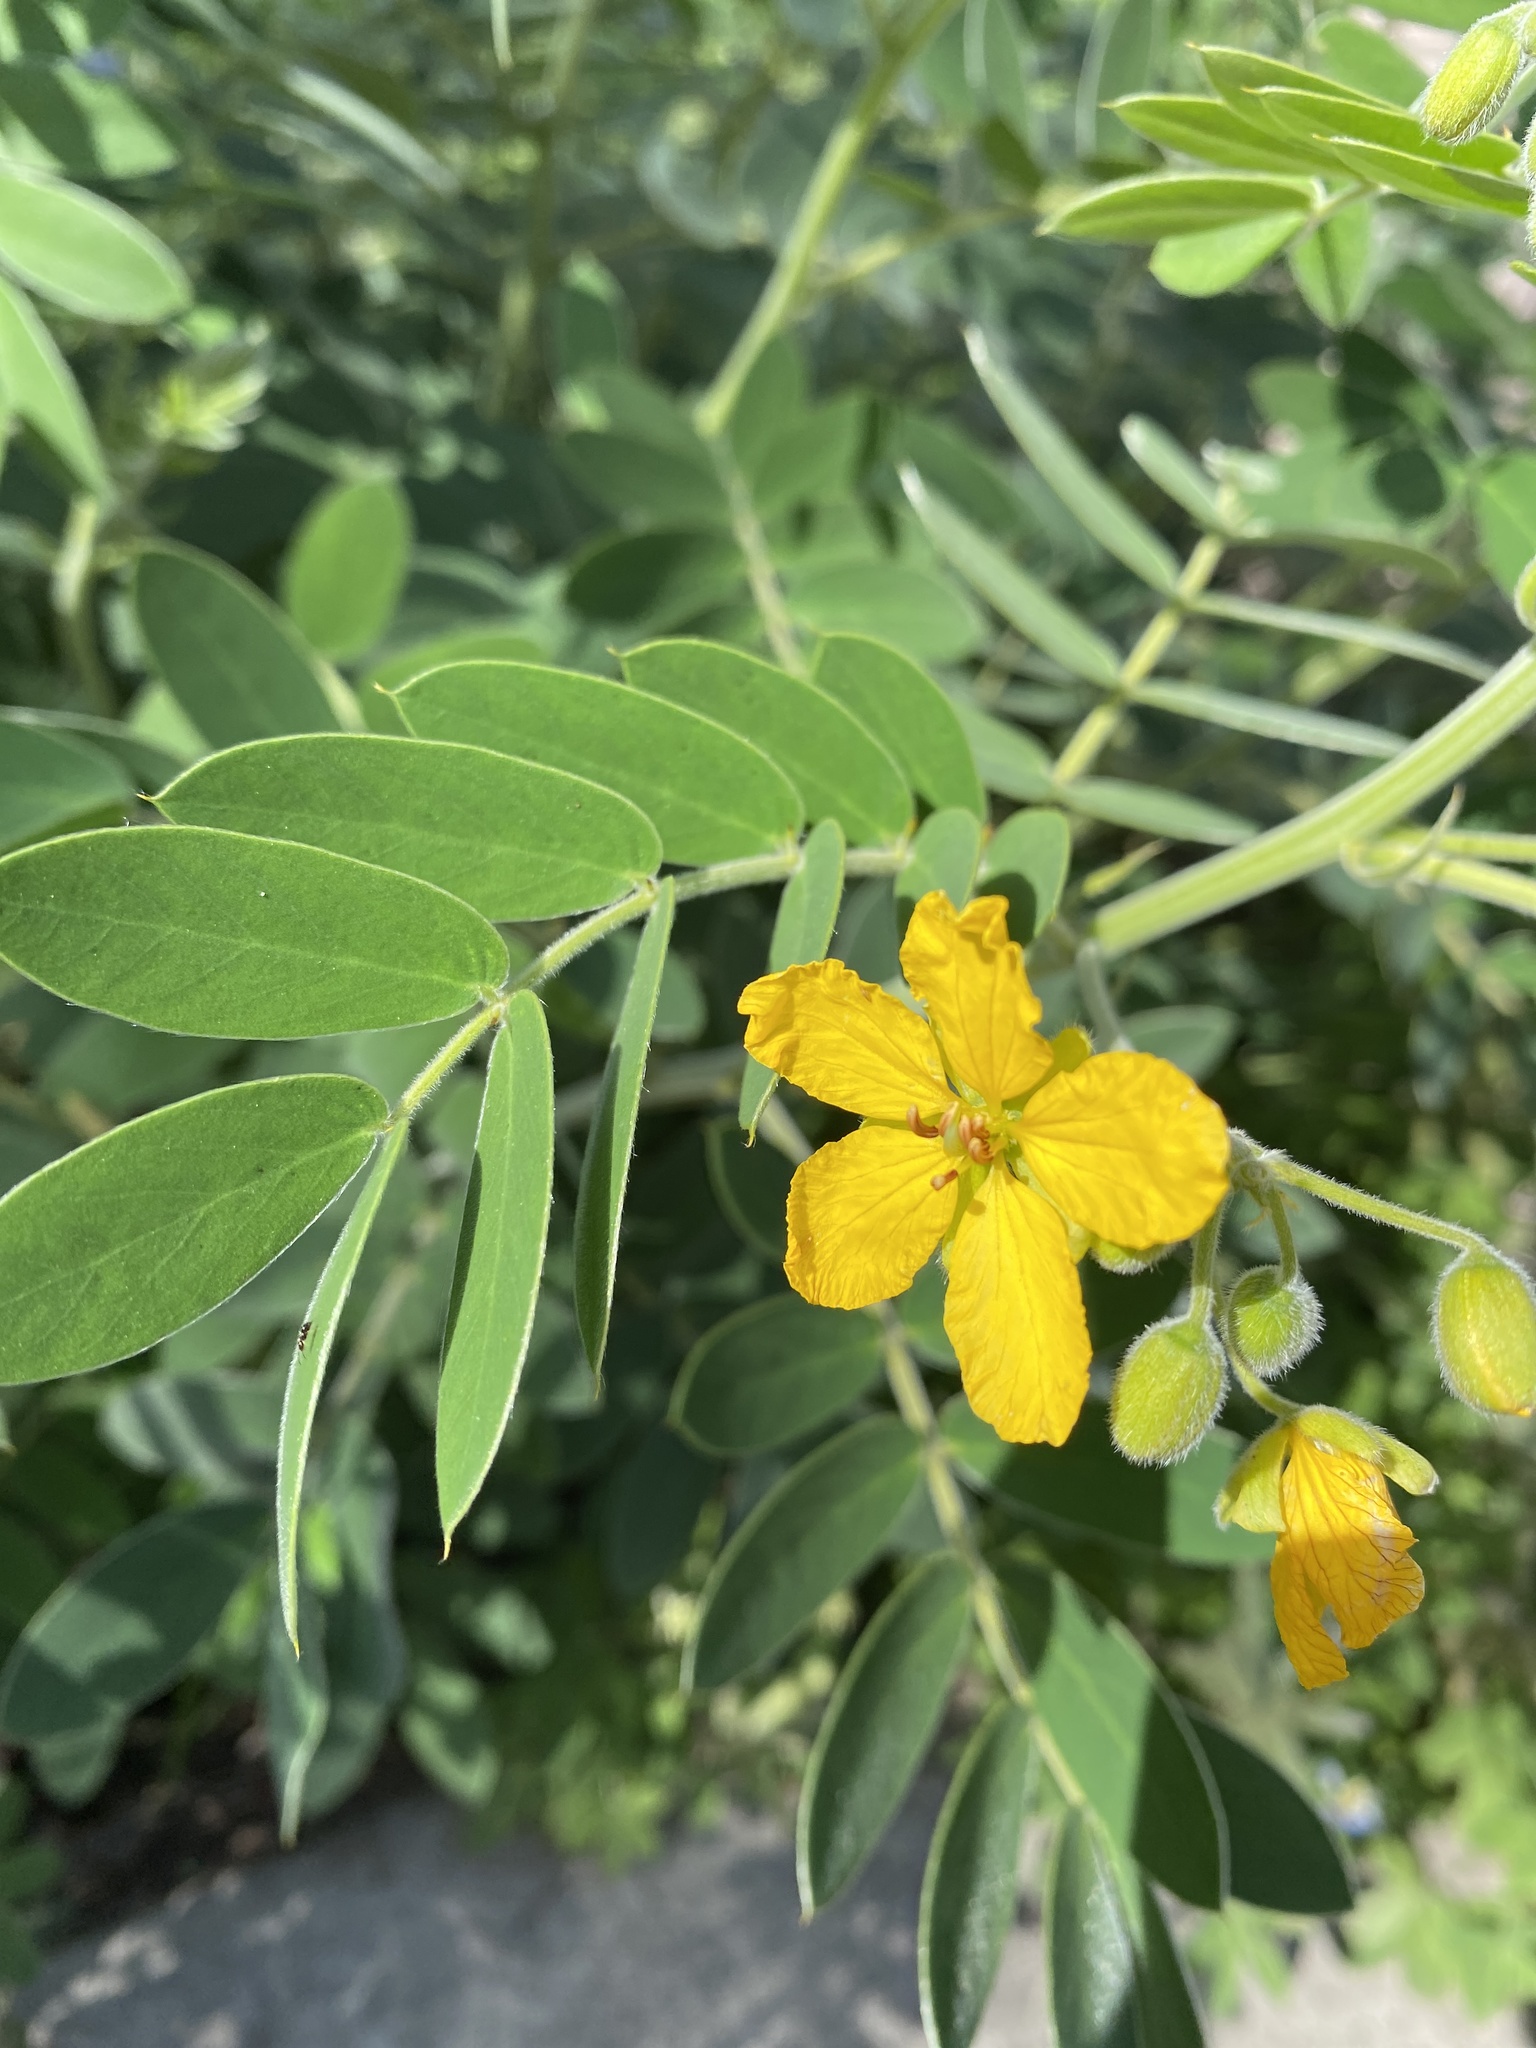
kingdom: Plantae
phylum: Tracheophyta
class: Magnoliopsida
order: Fabales
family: Fabaceae
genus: Senna
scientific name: Senna lindheimeriana
